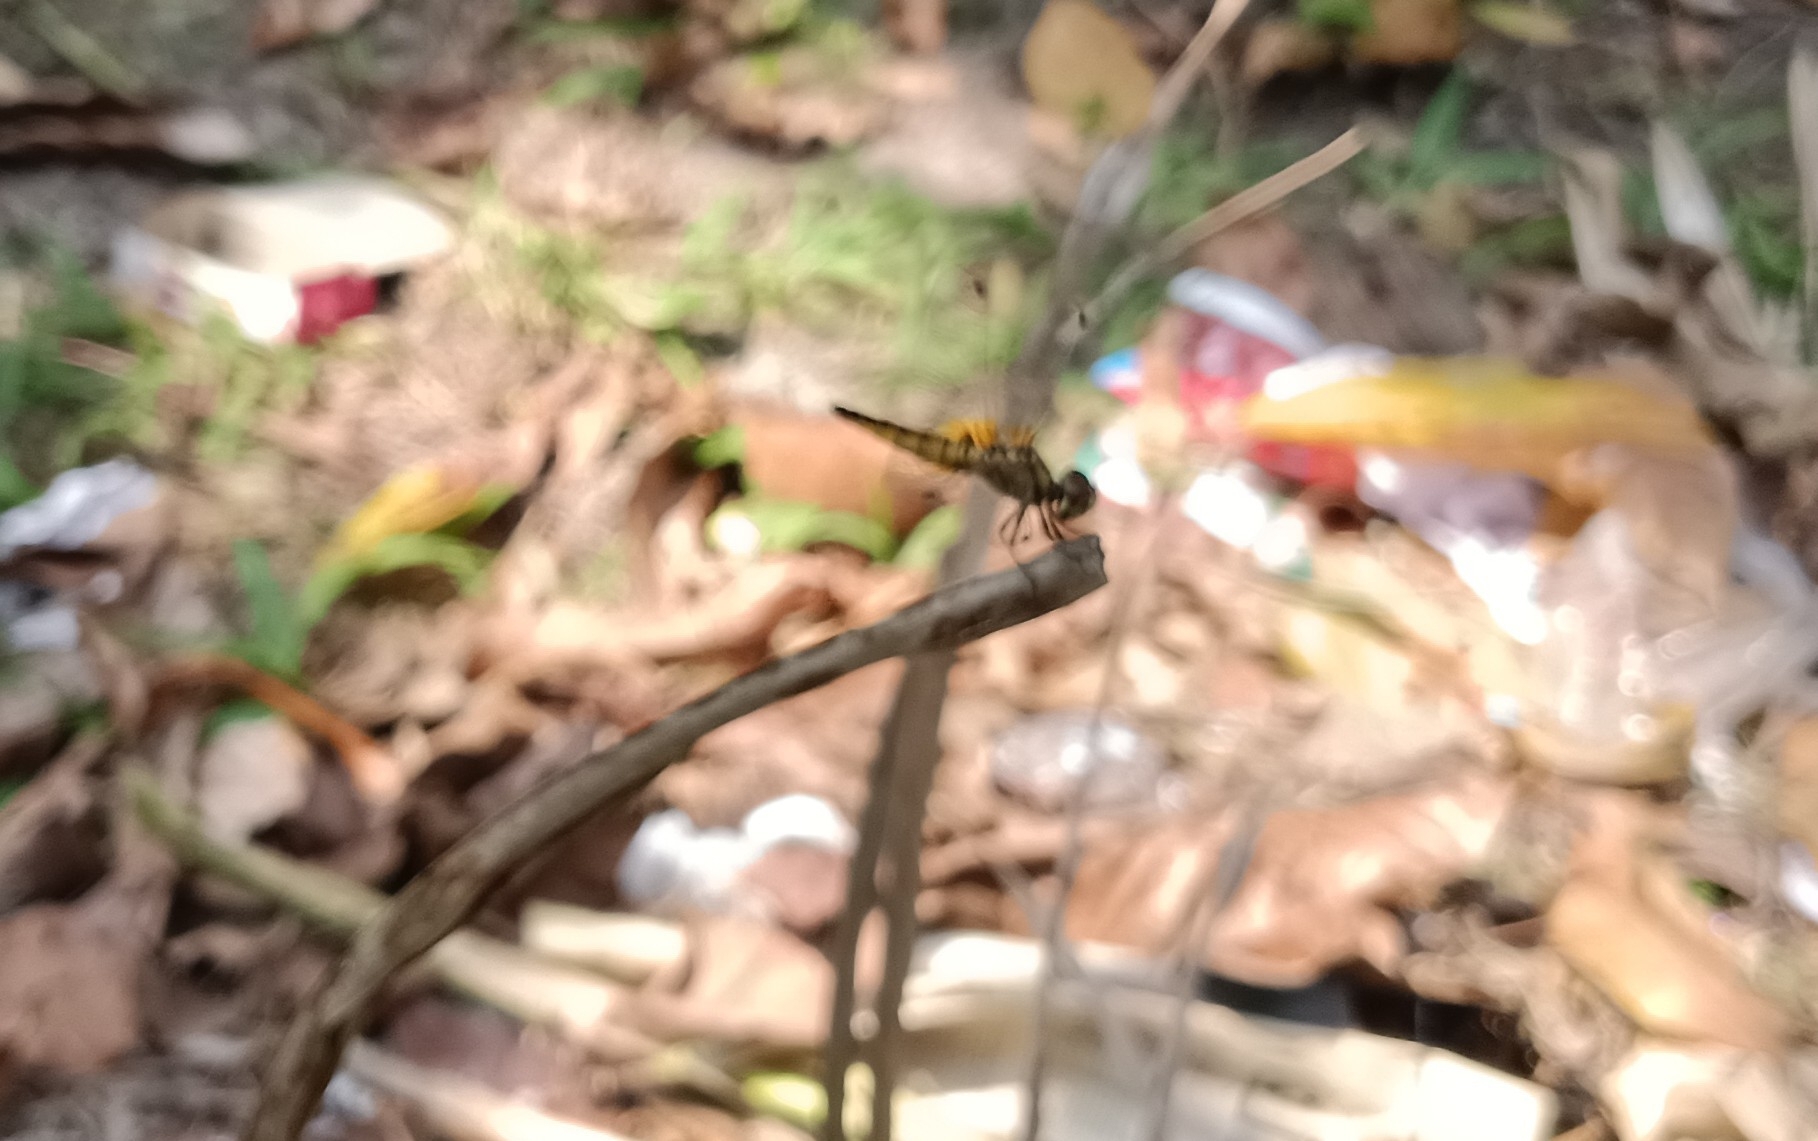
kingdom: Animalia
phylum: Arthropoda
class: Insecta
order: Odonata
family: Libellulidae
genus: Aethriamanta
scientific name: Aethriamanta brevipennis
